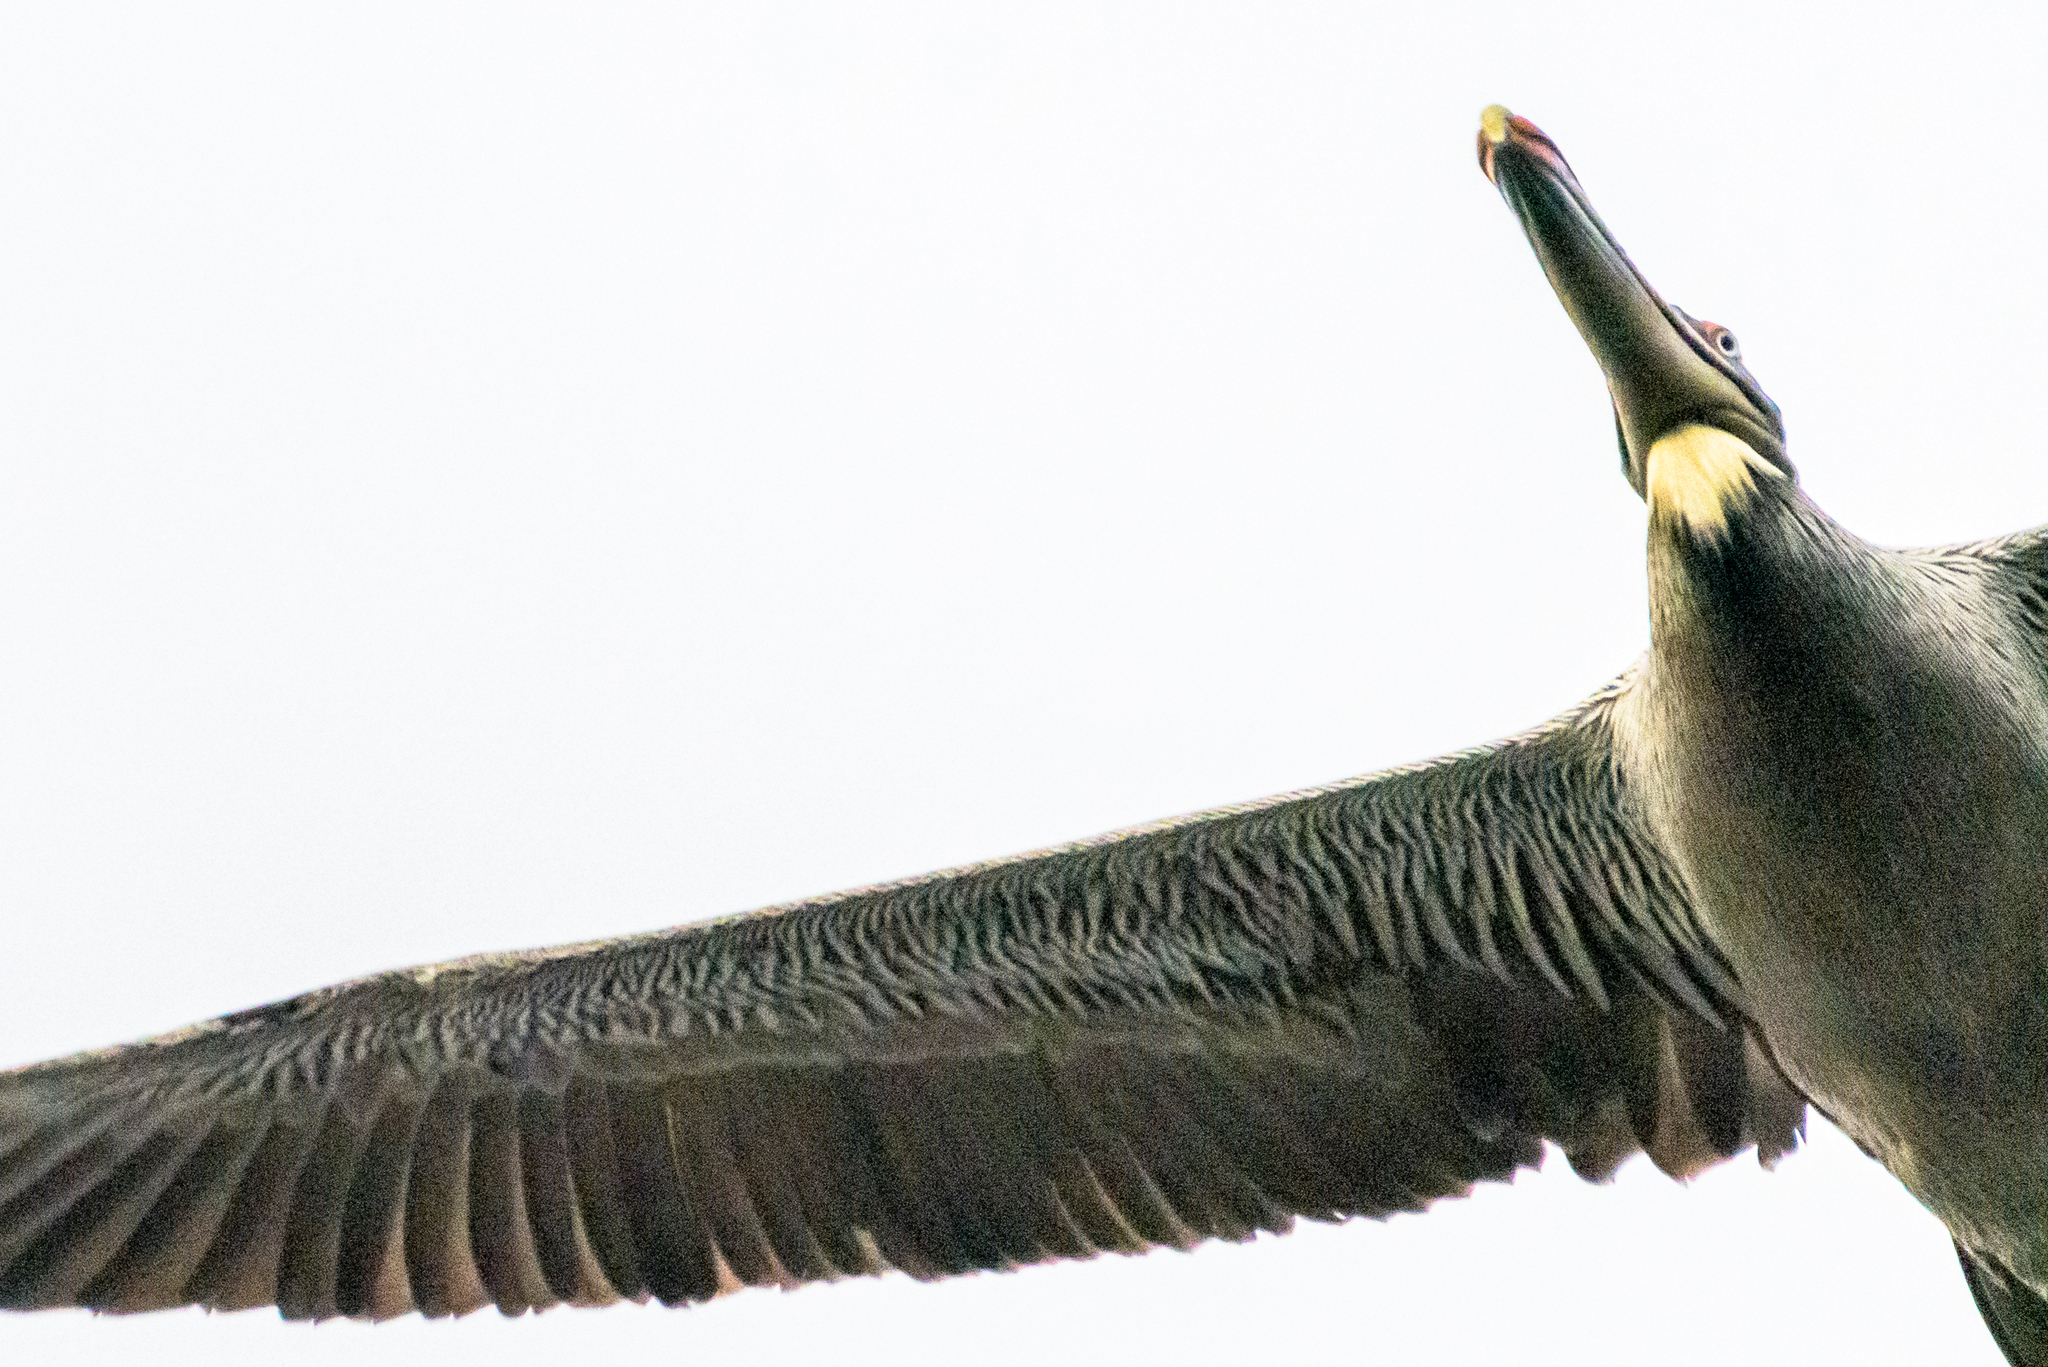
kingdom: Animalia
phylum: Chordata
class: Aves
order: Pelecaniformes
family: Pelecanidae
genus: Pelecanus
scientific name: Pelecanus occidentalis
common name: Brown pelican
